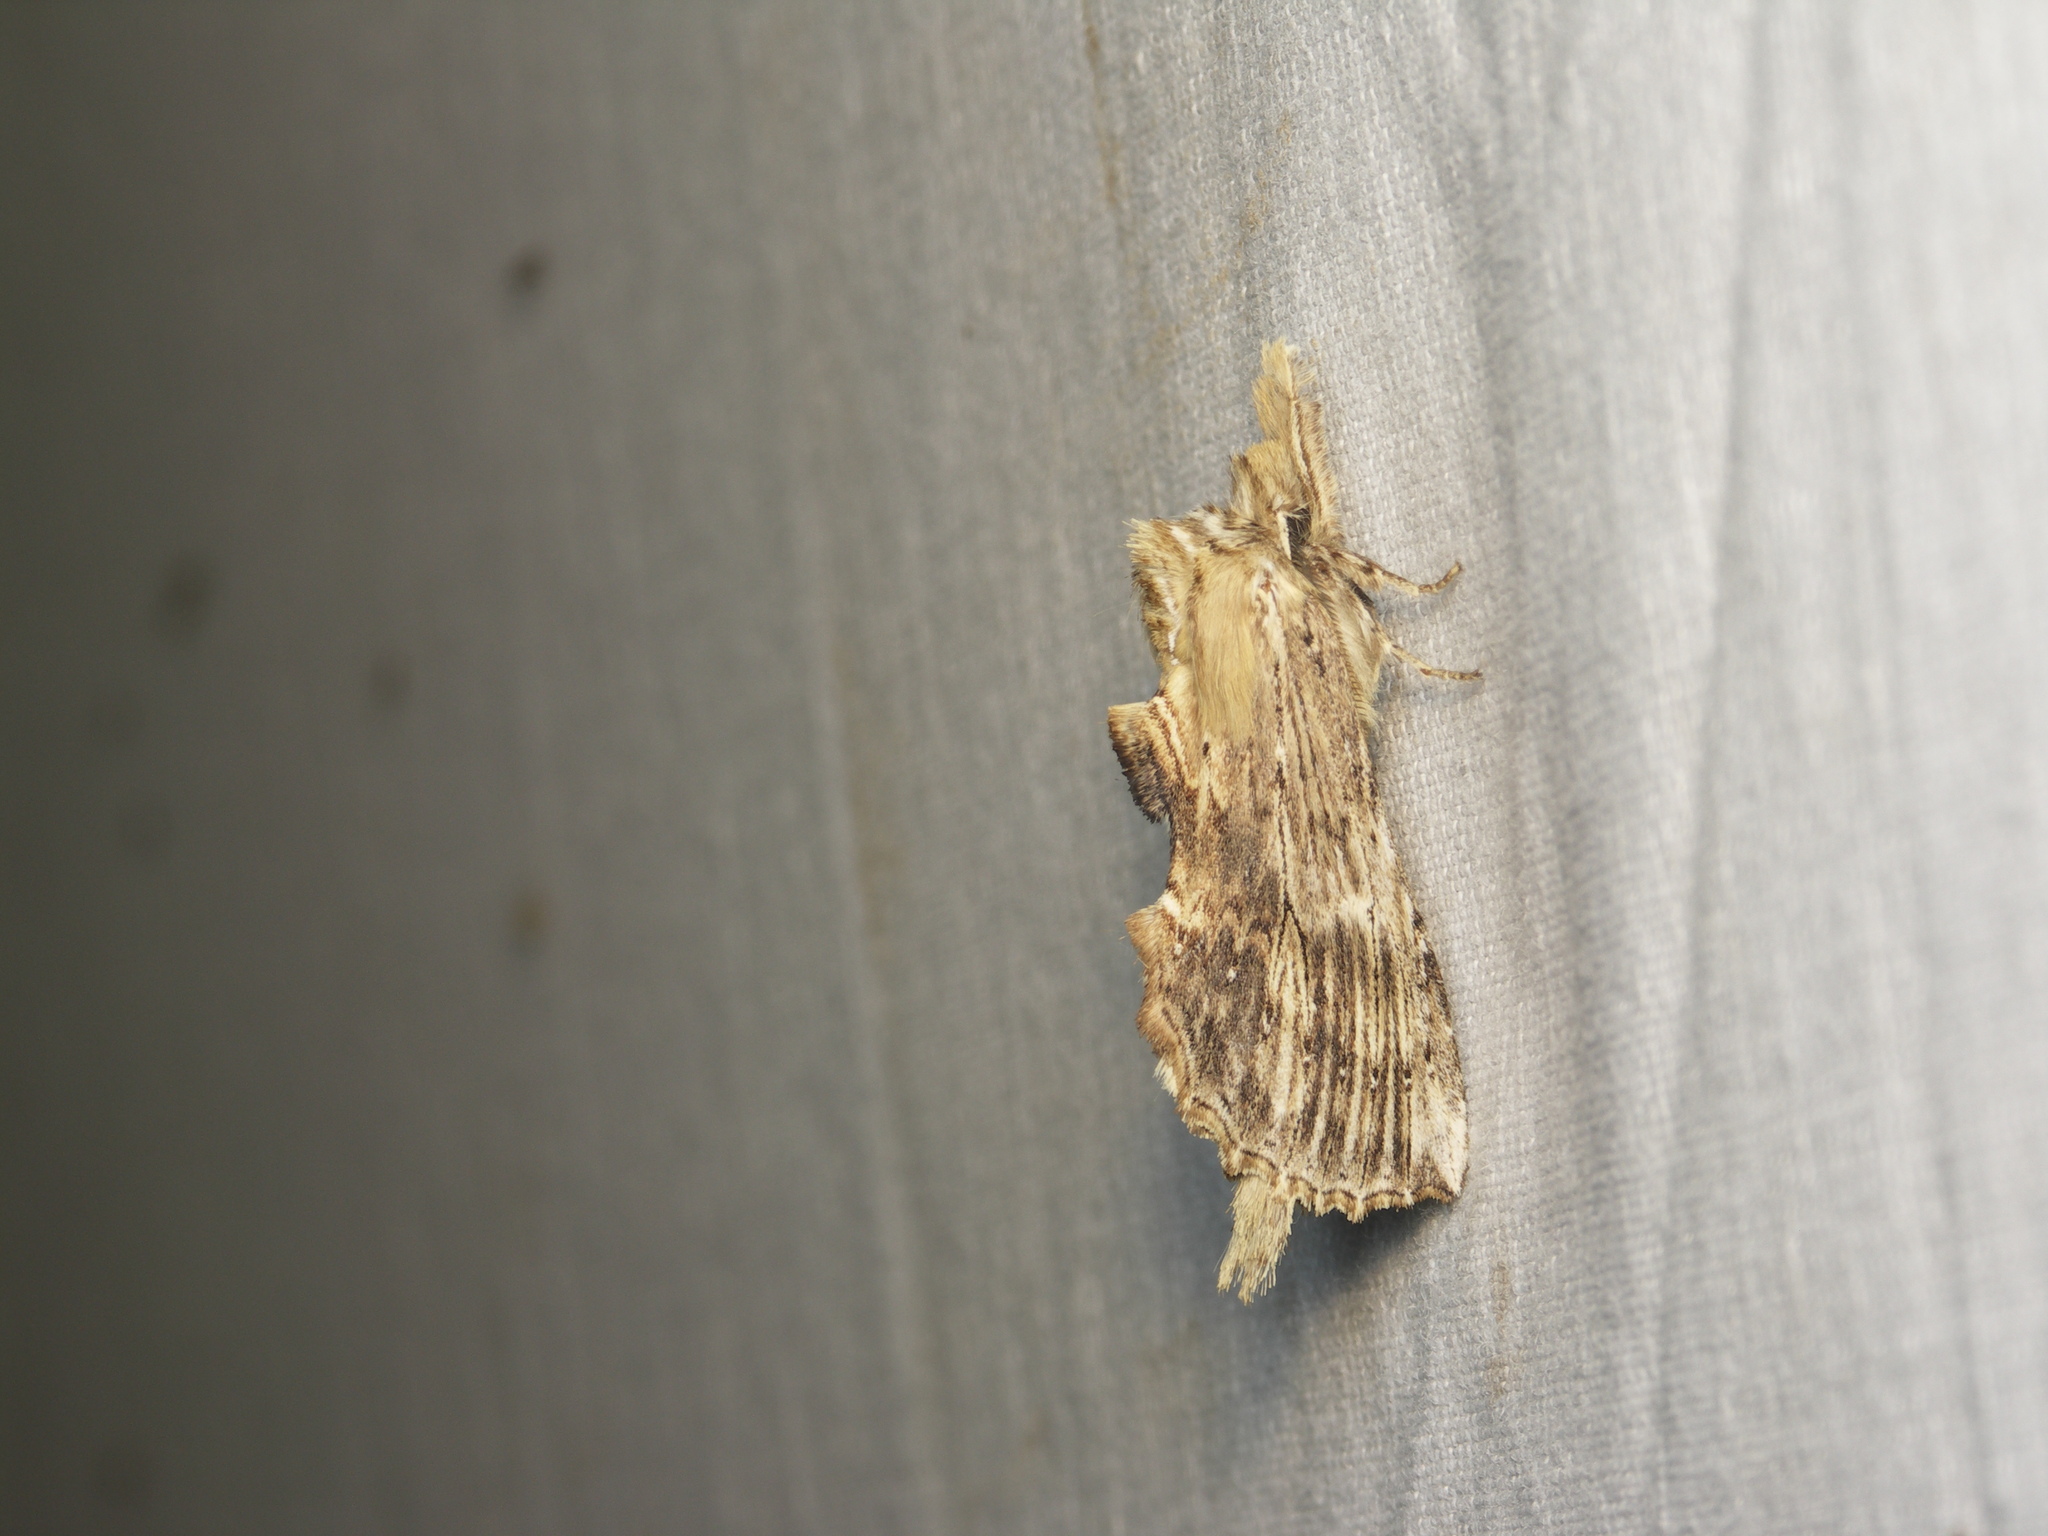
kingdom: Animalia
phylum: Arthropoda
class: Insecta
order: Lepidoptera
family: Notodontidae
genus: Pterostoma
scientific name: Pterostoma palpina
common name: Pale prominent
